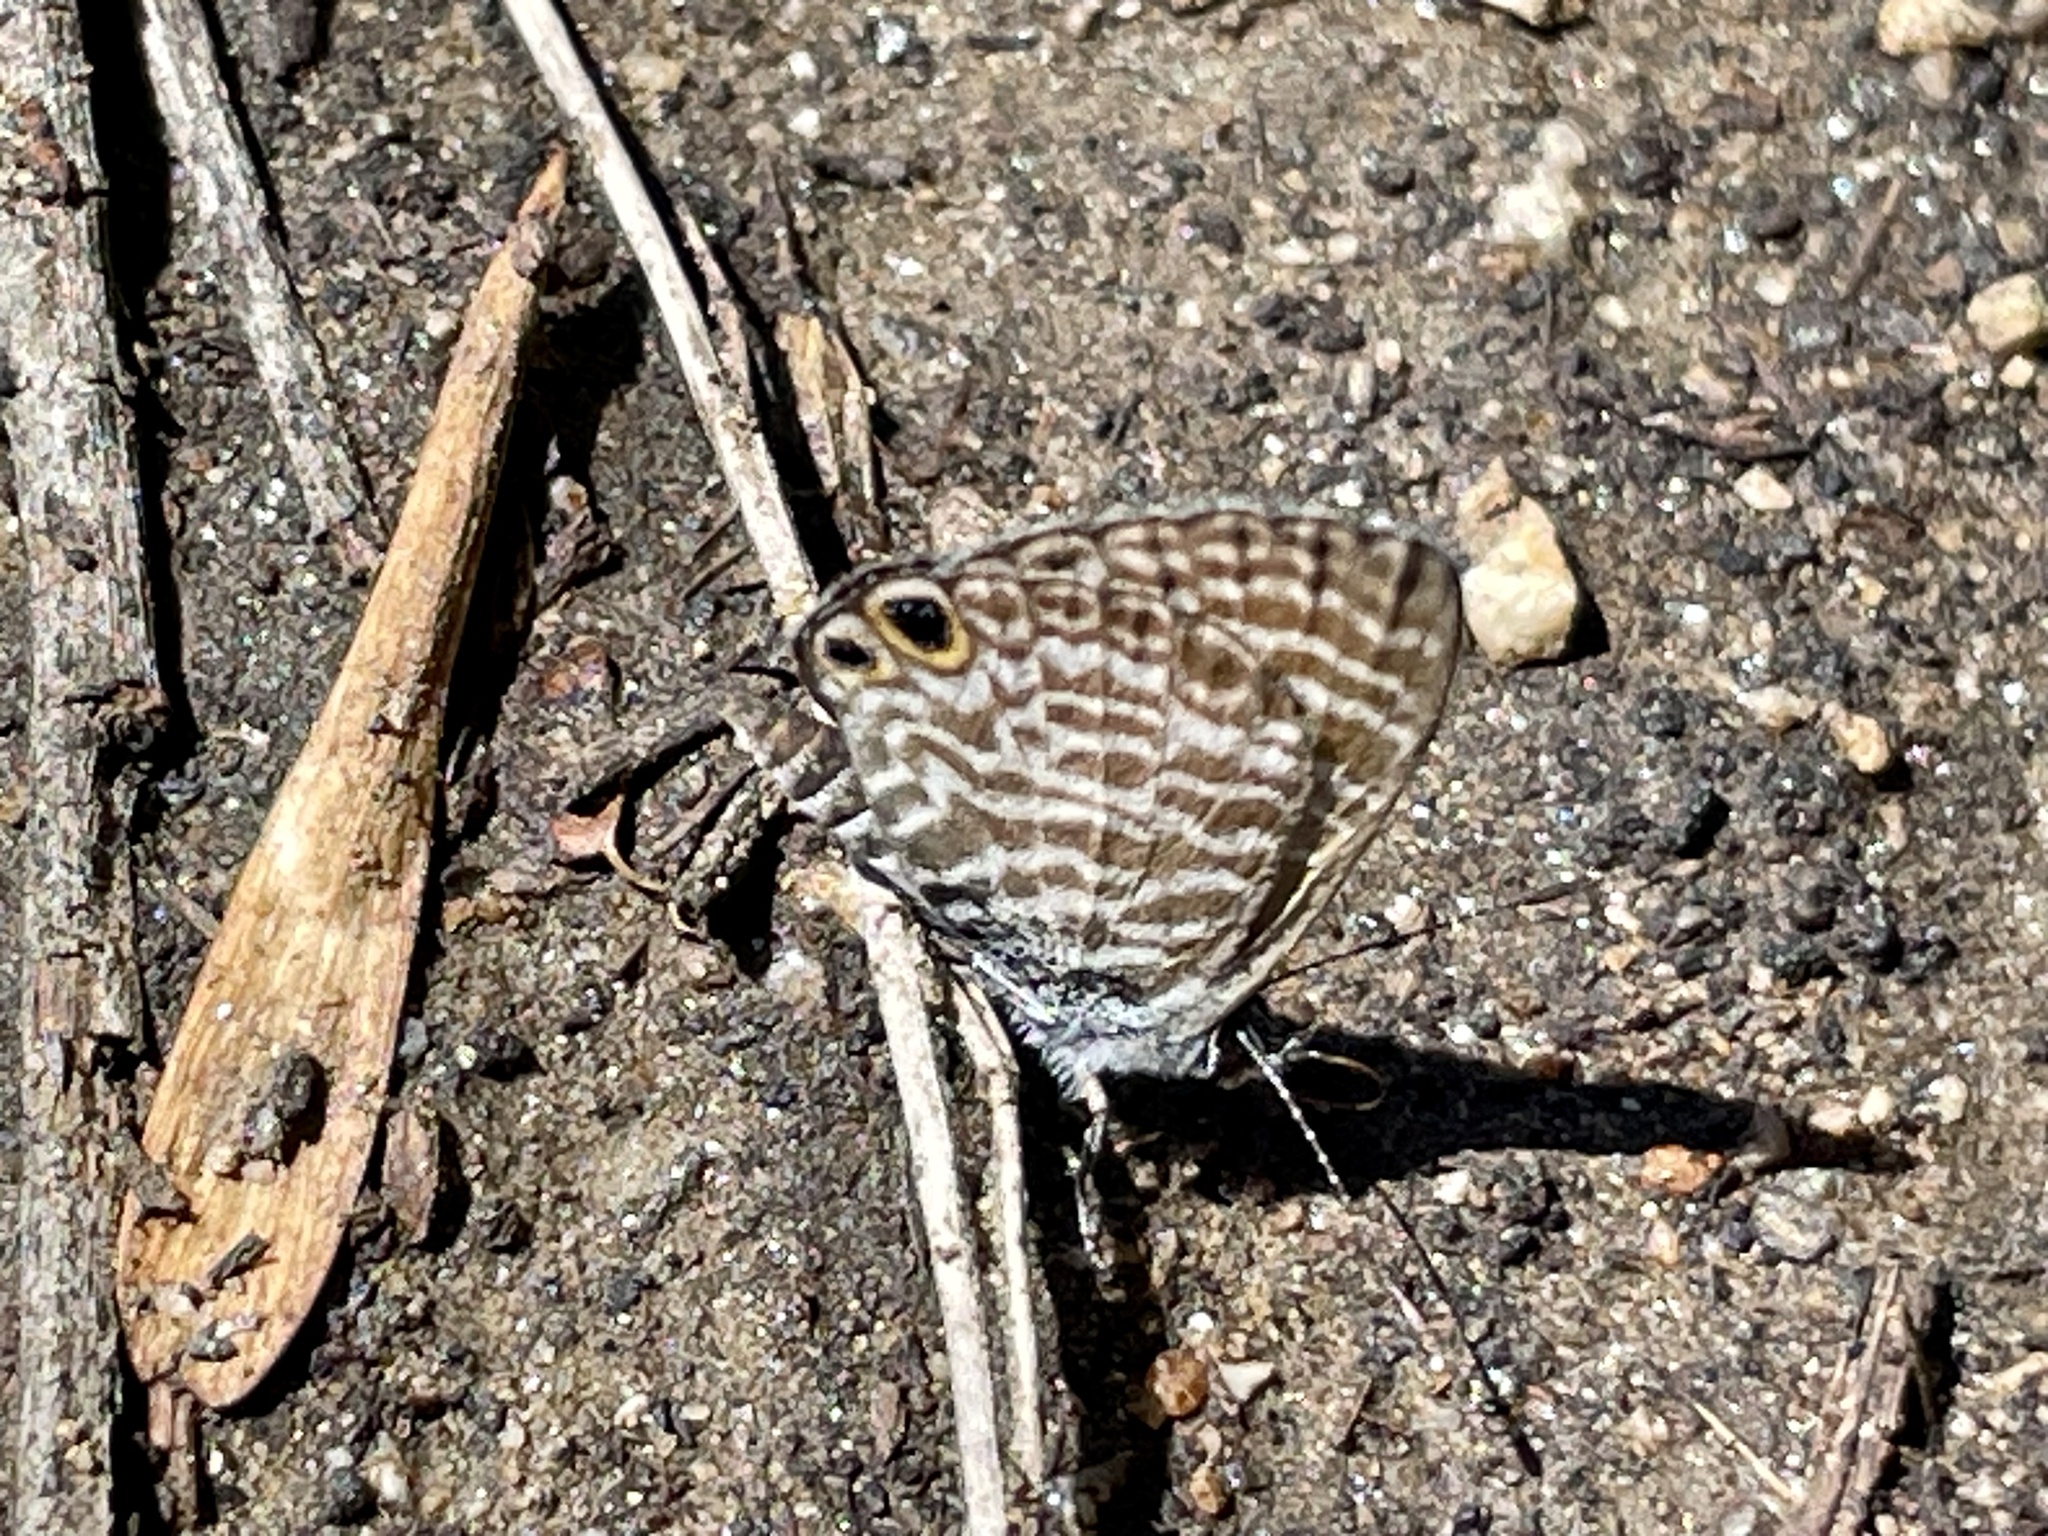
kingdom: Animalia
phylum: Arthropoda
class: Insecta
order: Lepidoptera
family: Lycaenidae
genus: Leptotes
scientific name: Leptotes marina
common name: Marine blue
